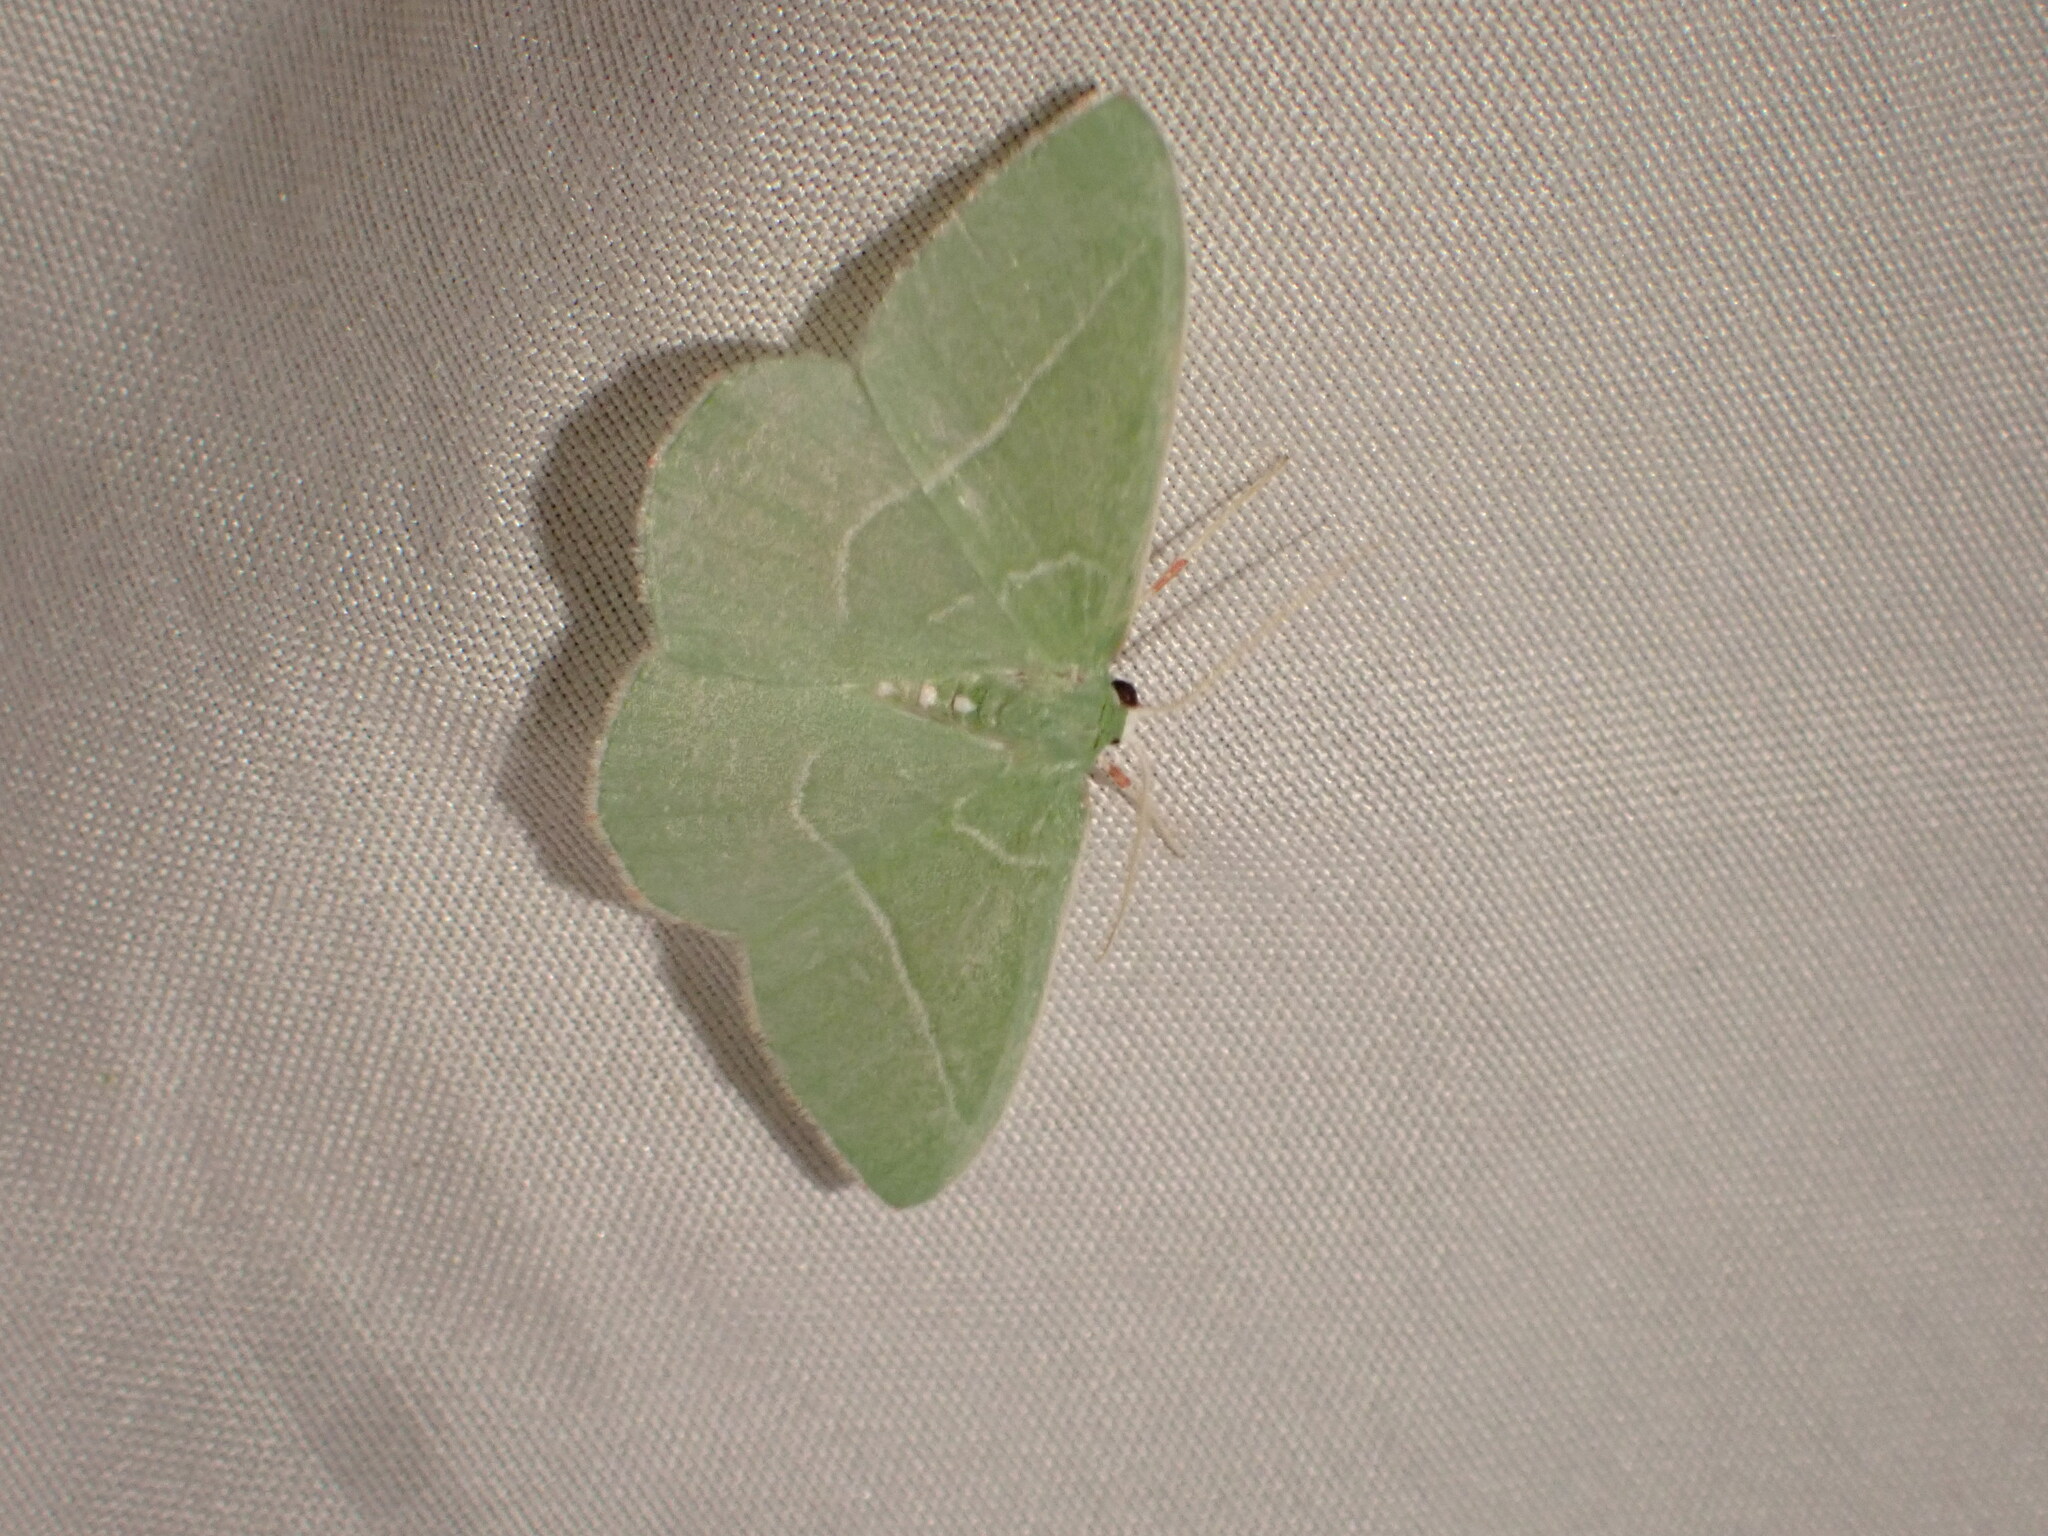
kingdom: Animalia
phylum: Arthropoda
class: Insecta
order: Lepidoptera
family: Geometridae
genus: Nemoria
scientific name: Nemoria unitaria
